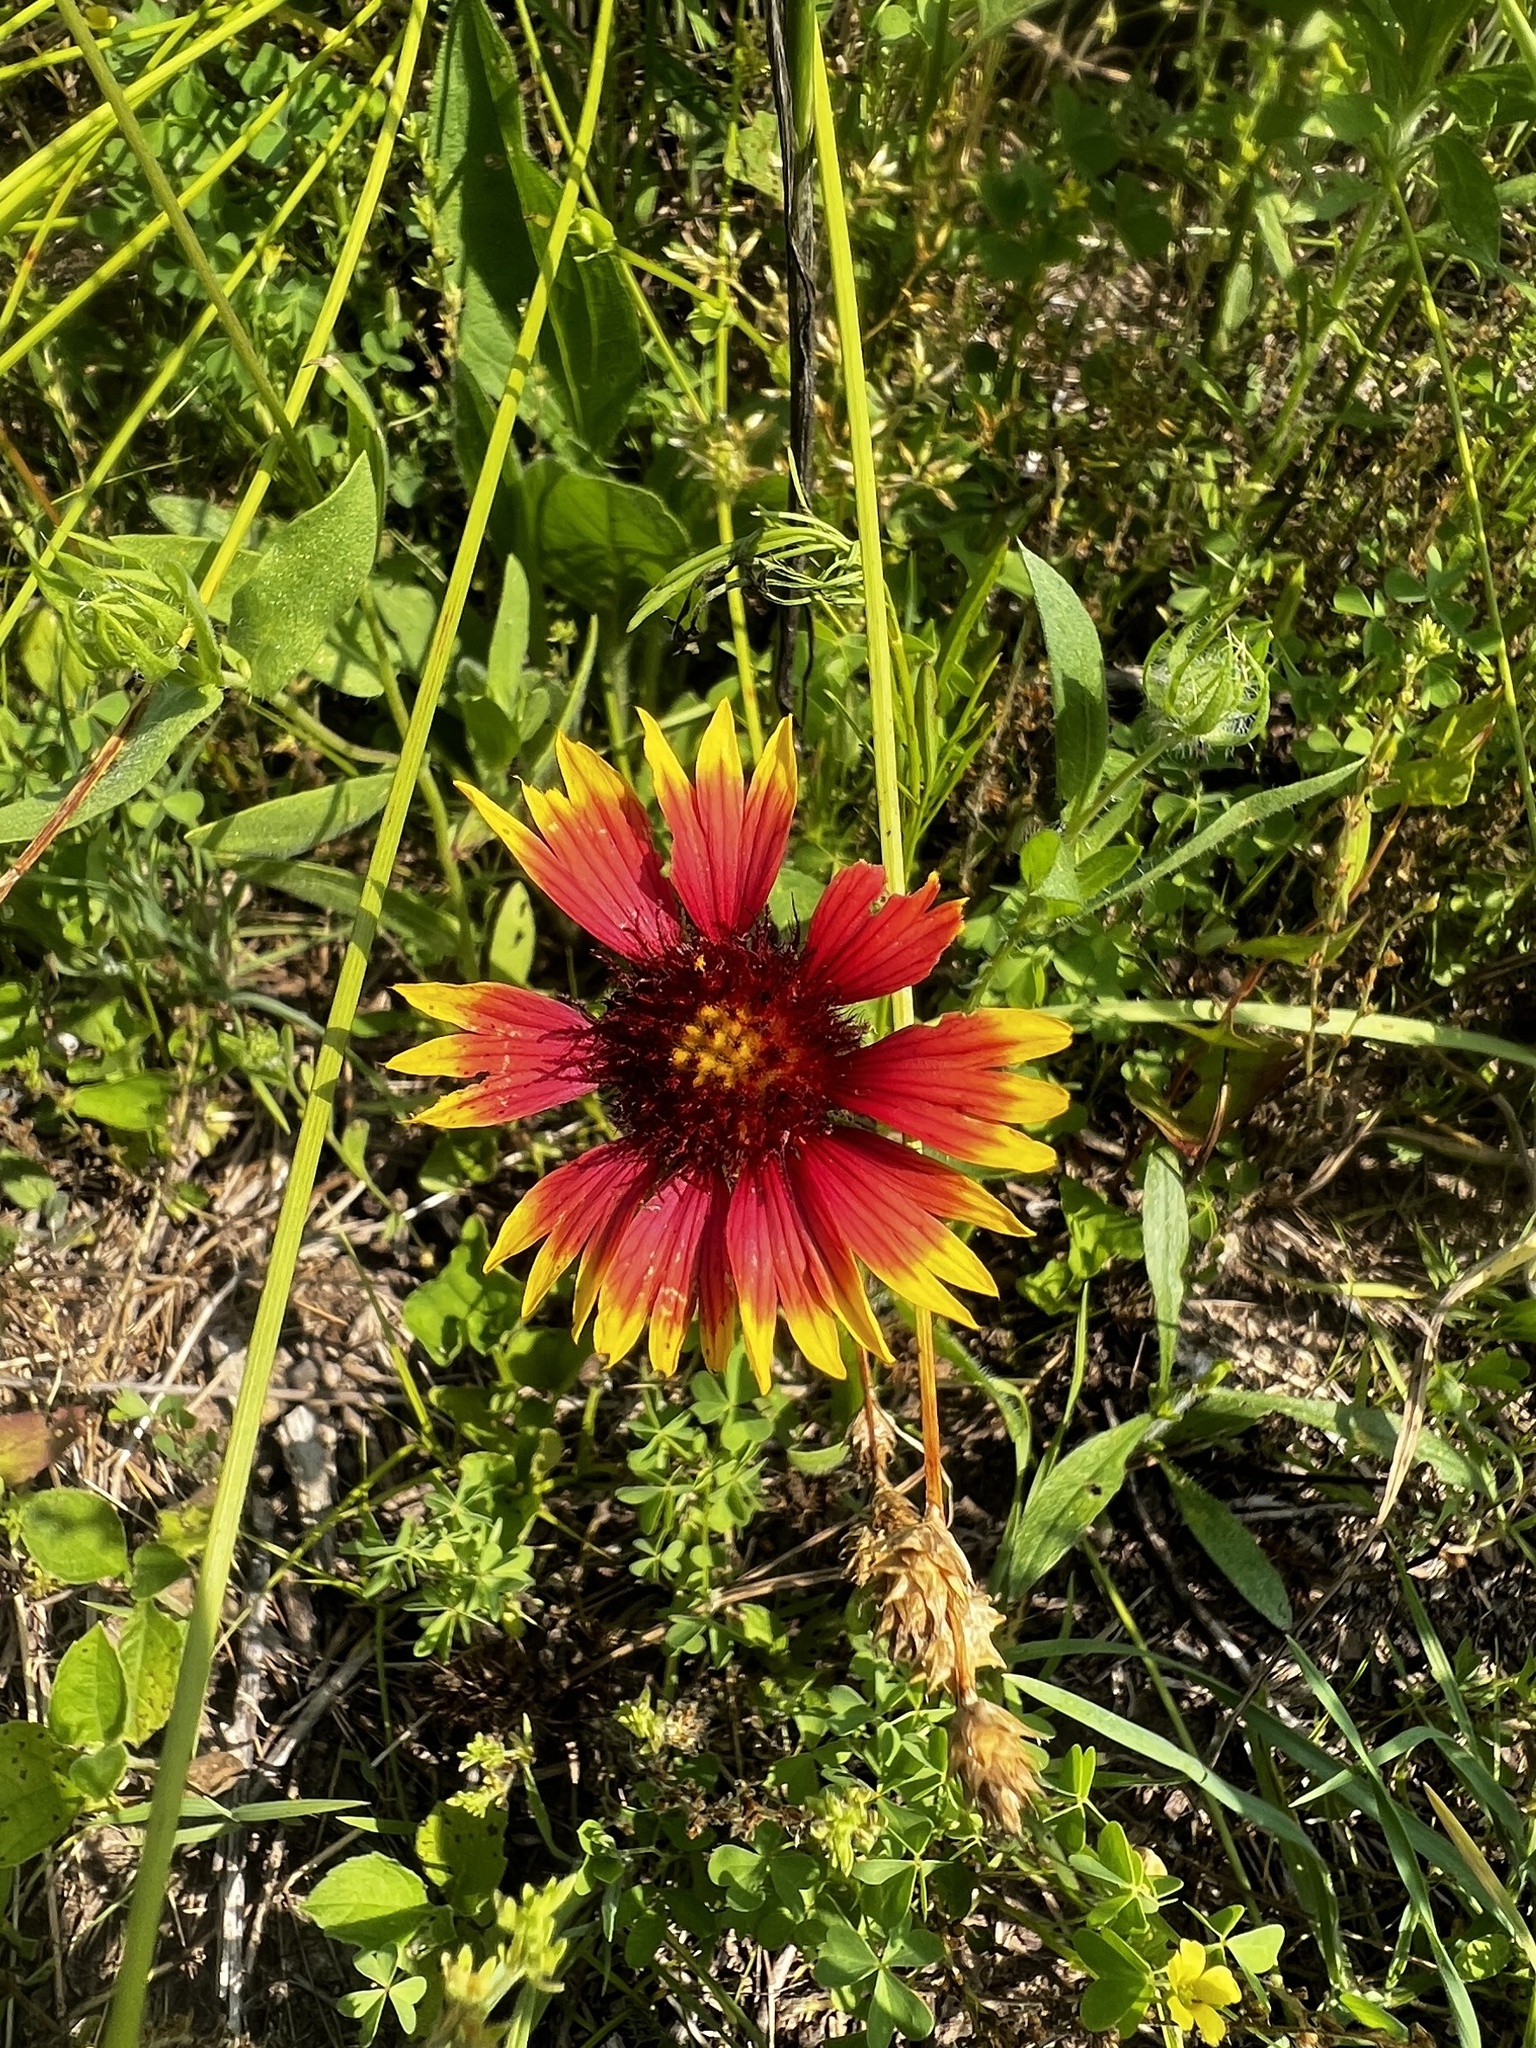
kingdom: Plantae
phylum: Tracheophyta
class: Magnoliopsida
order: Asterales
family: Asteraceae
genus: Gaillardia
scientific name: Gaillardia pulchella
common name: Firewheel
